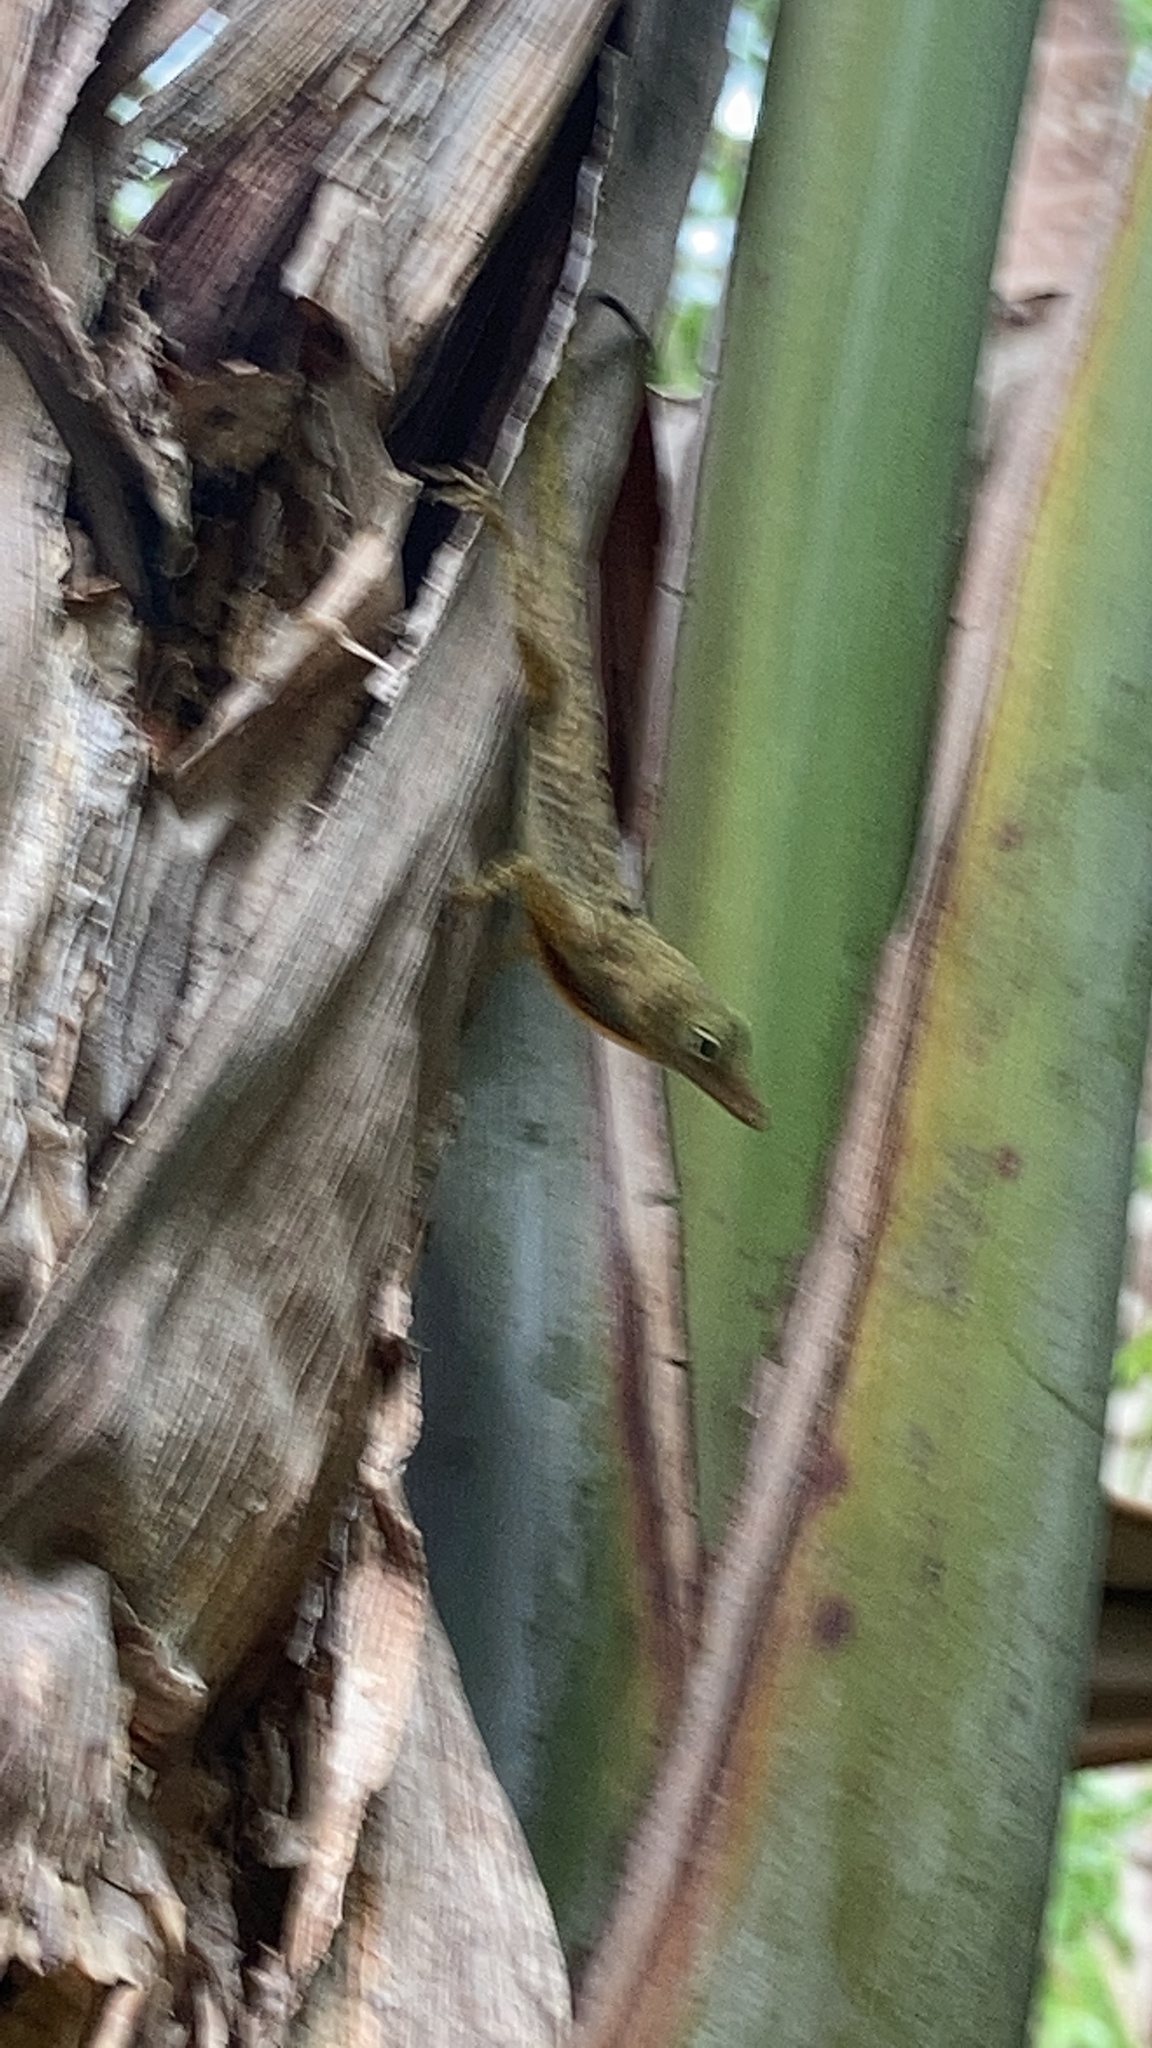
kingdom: Animalia
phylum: Chordata
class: Squamata
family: Dactyloidae
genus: Anolis
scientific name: Anolis stratulus
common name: Banded anole
